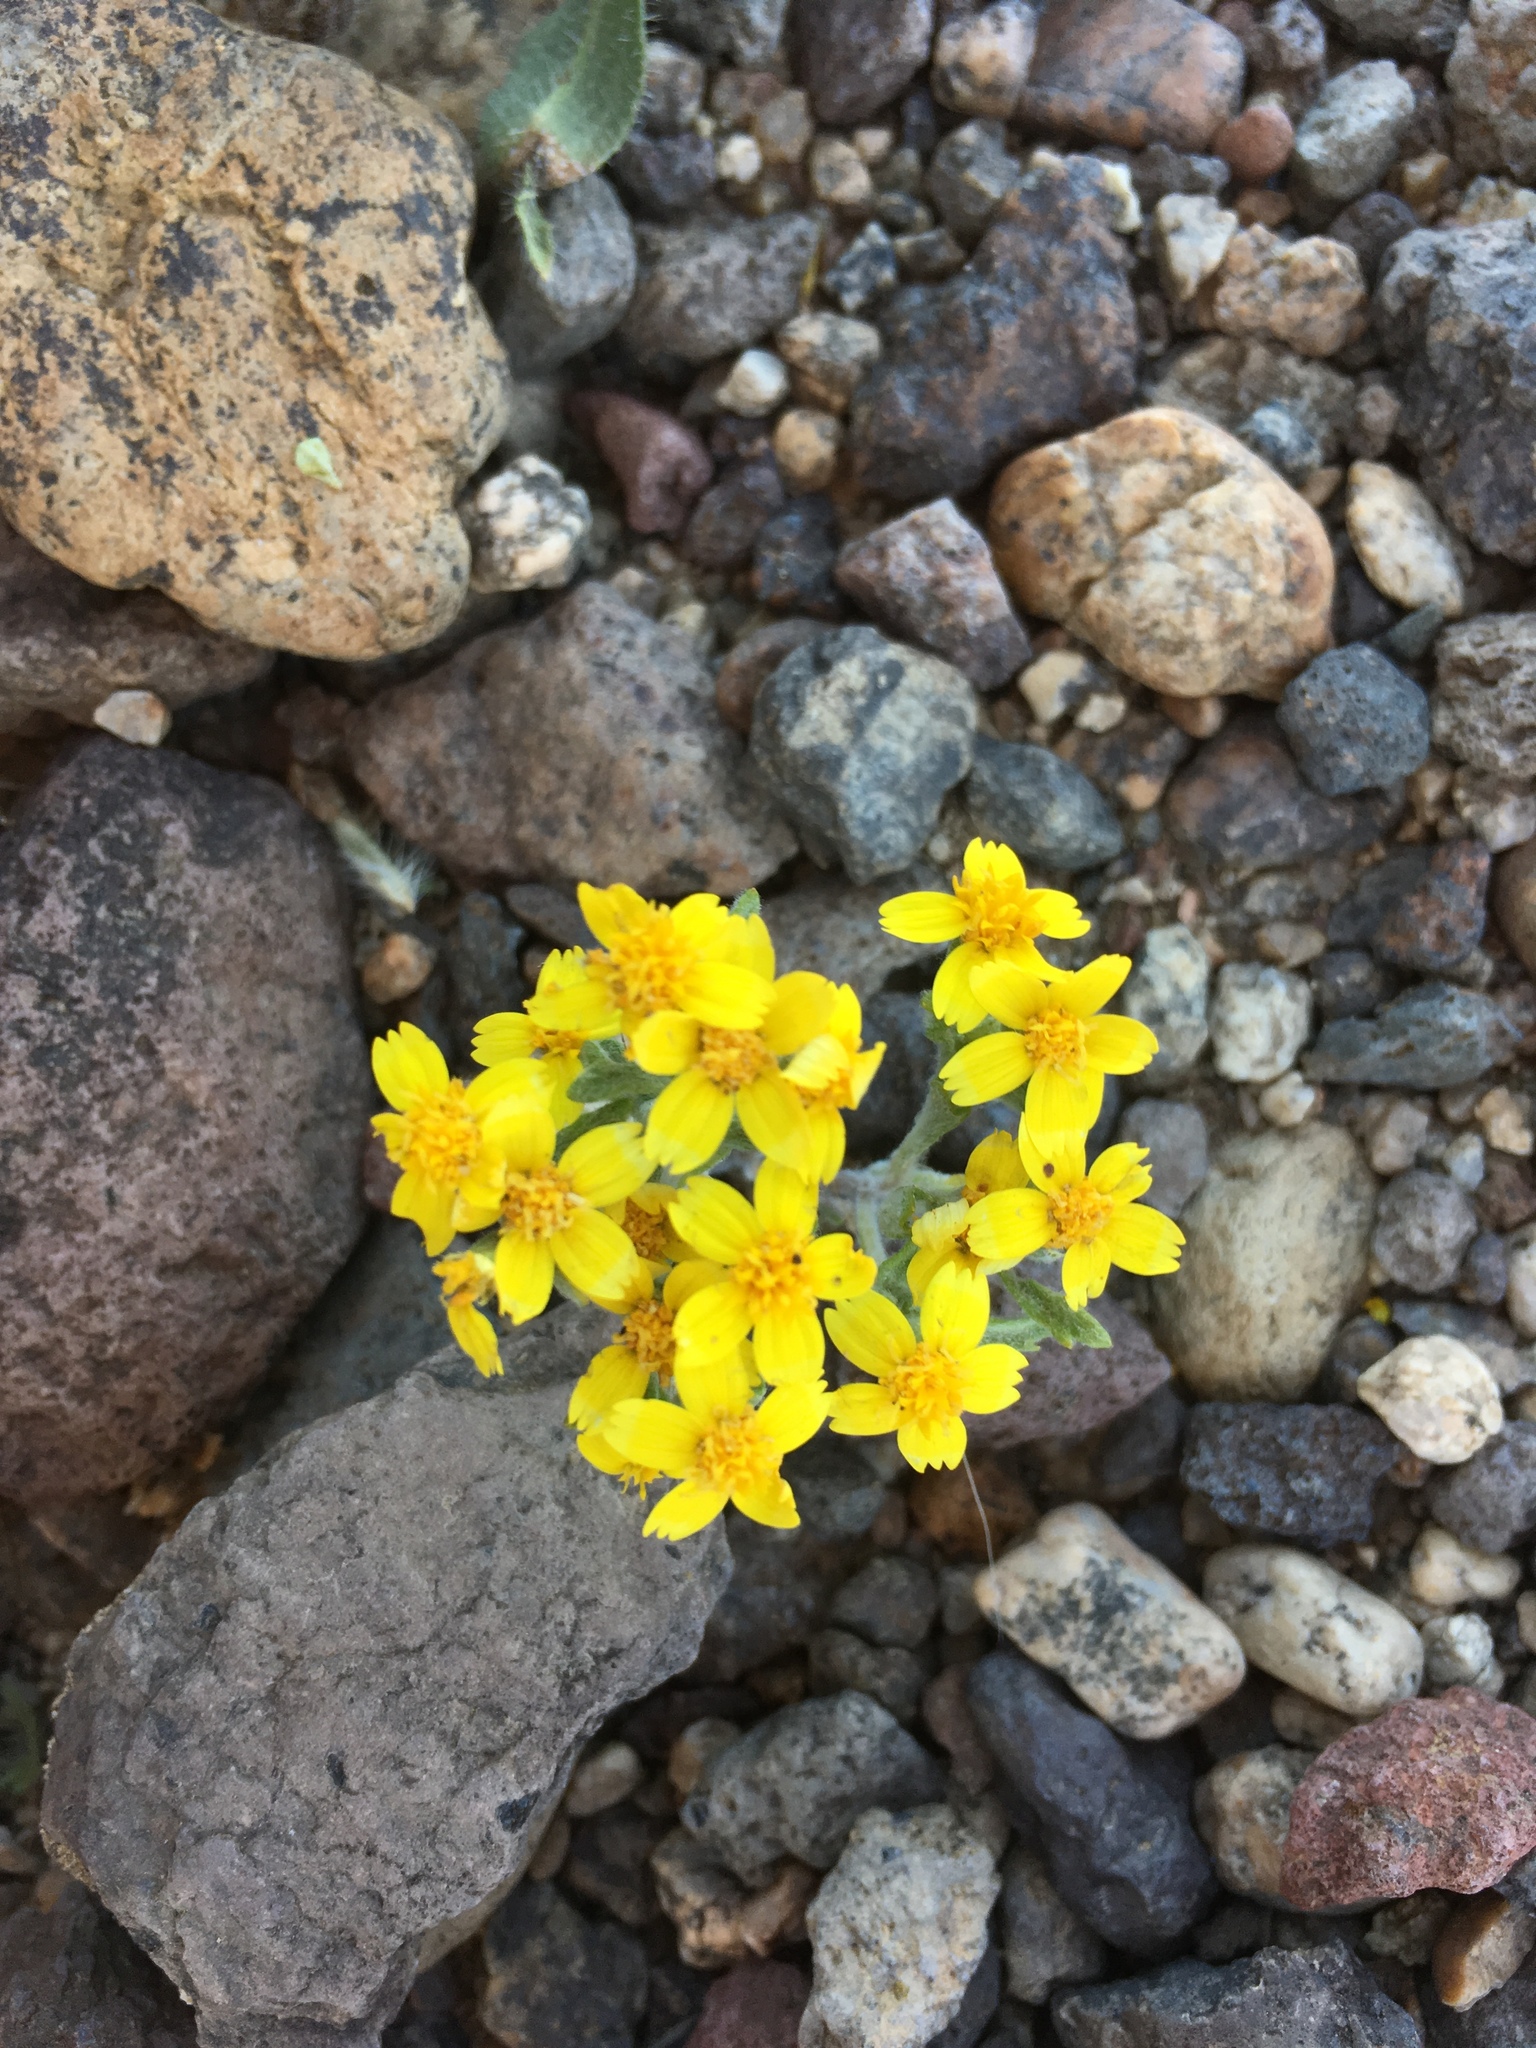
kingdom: Plantae
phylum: Tracheophyta
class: Magnoliopsida
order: Asterales
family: Asteraceae
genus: Syntrichopappus
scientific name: Syntrichopappus fremontii
